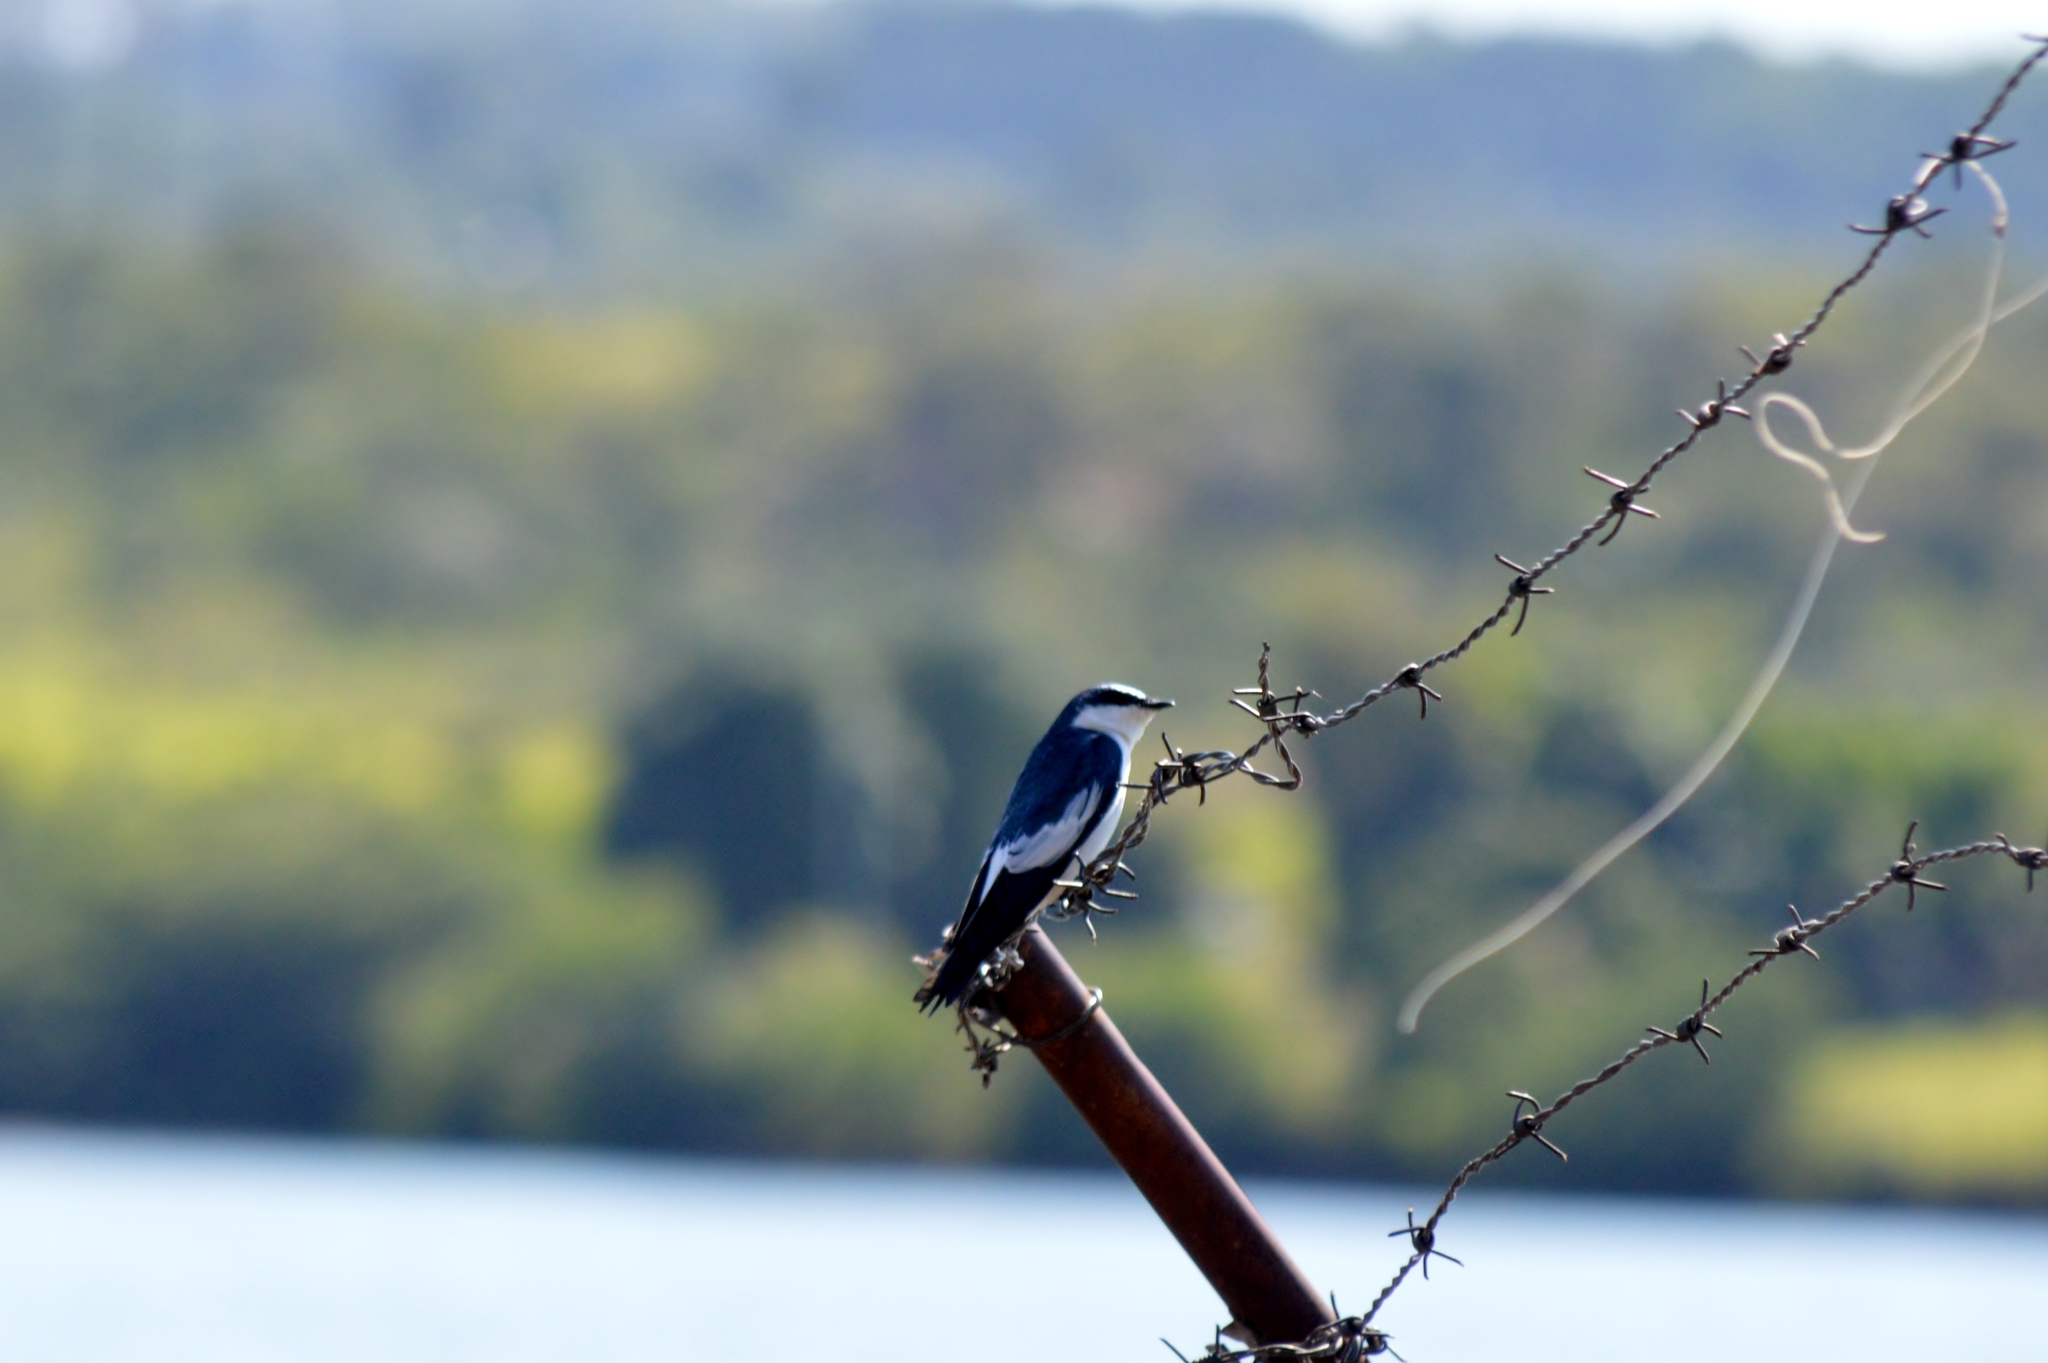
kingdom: Animalia
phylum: Chordata
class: Aves
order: Passeriformes
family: Hirundinidae
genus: Tachycineta
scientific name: Tachycineta albiventer
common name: White-winged swallow
